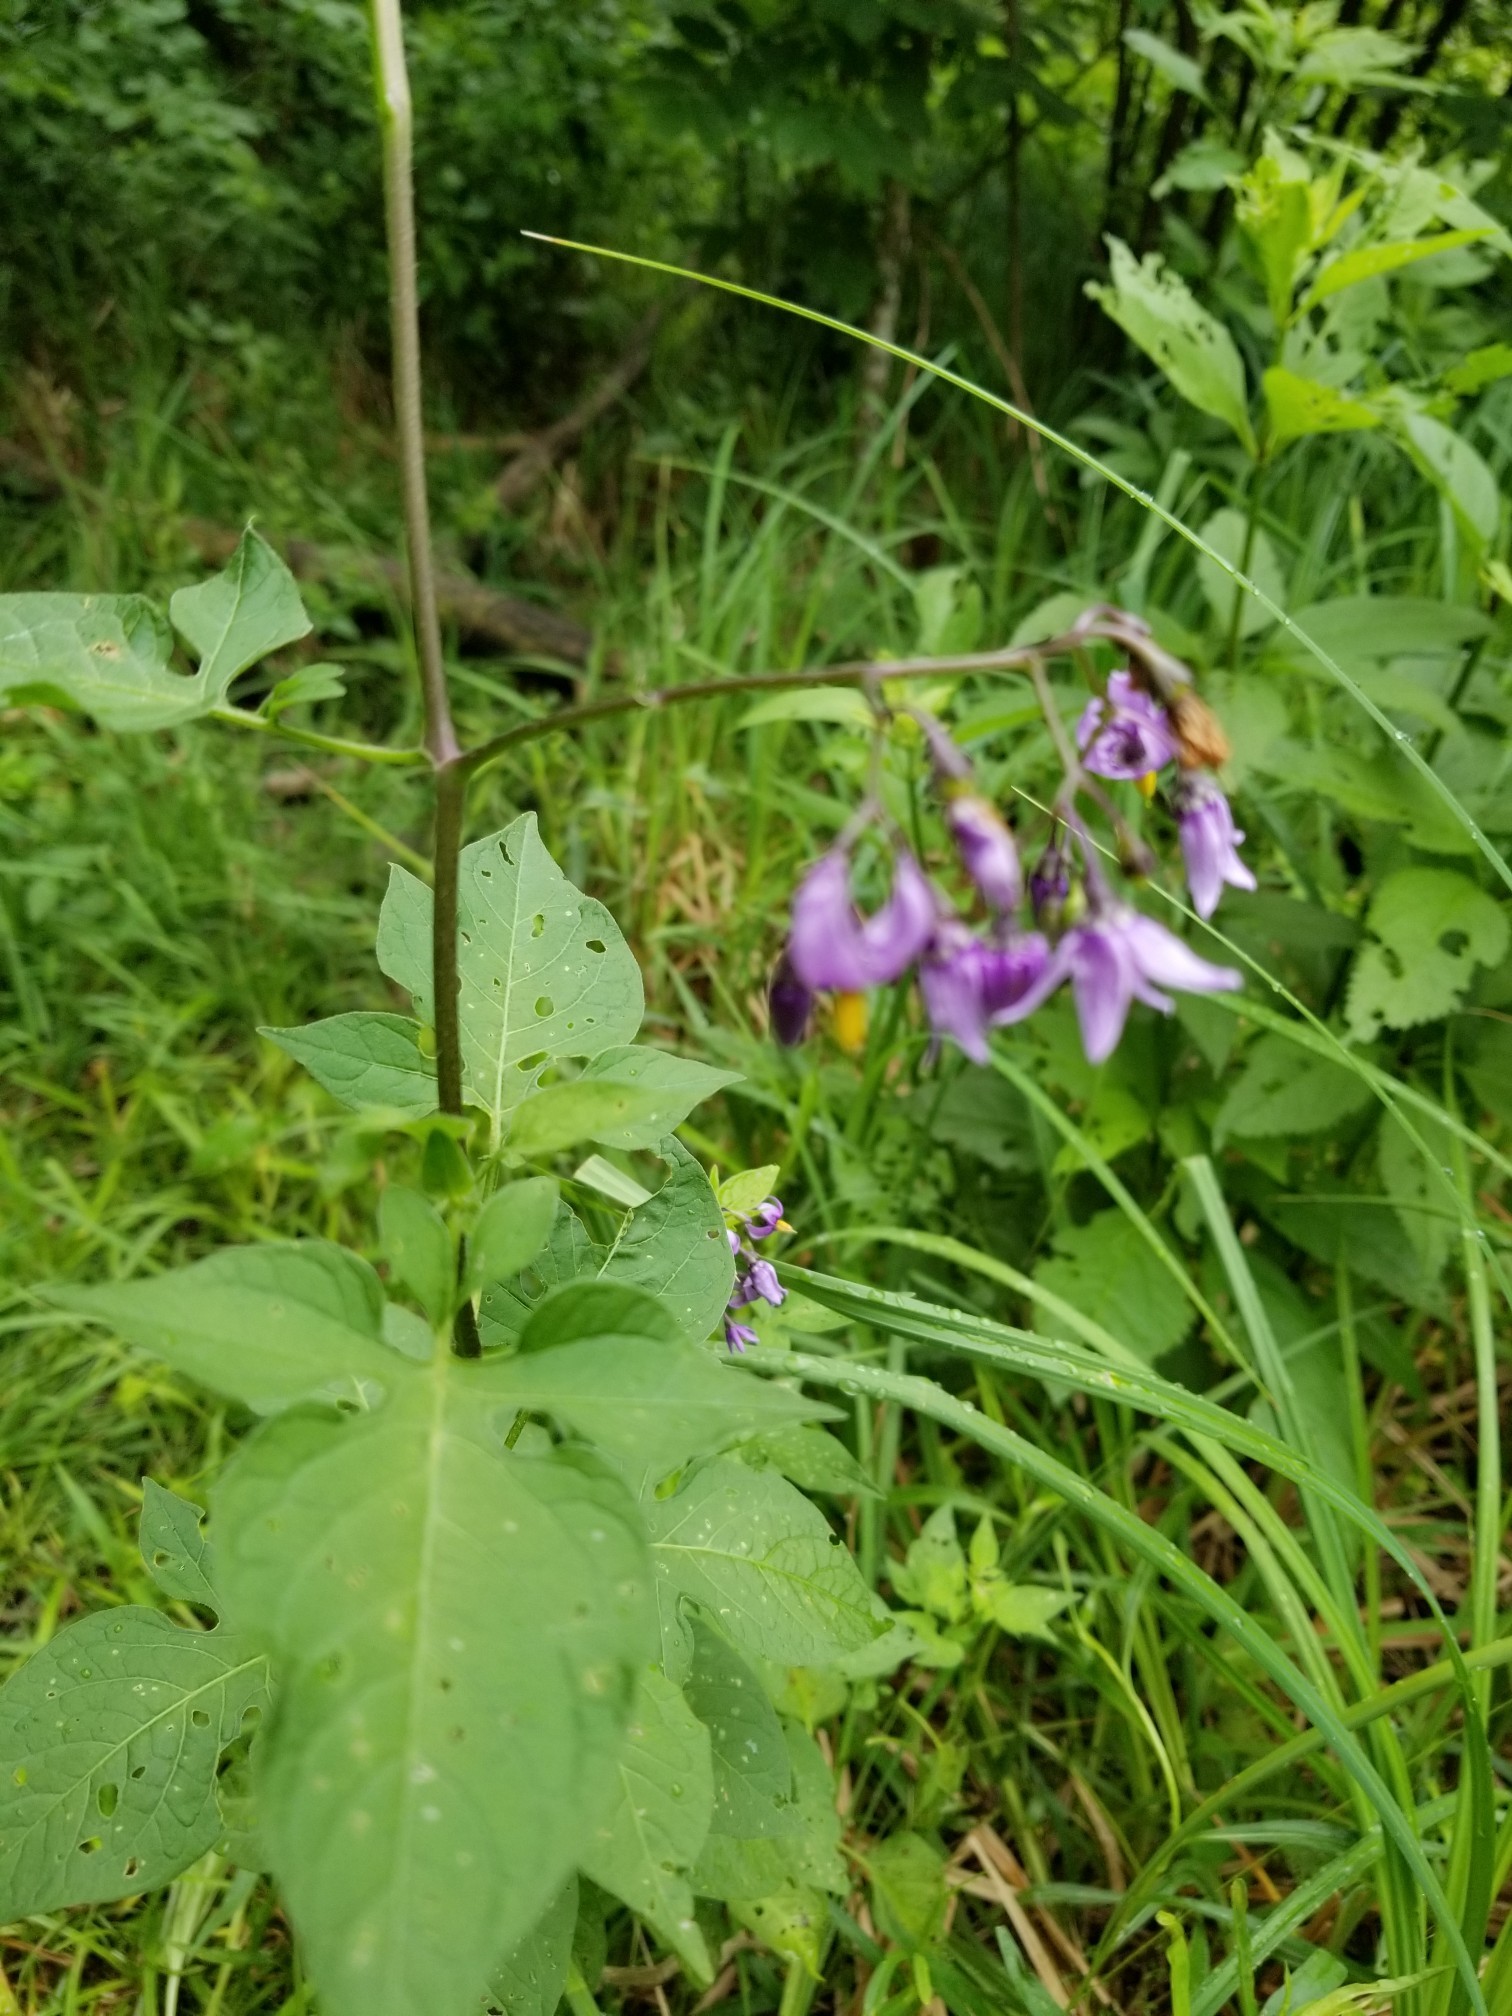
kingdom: Plantae
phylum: Tracheophyta
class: Magnoliopsida
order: Solanales
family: Solanaceae
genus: Solanum
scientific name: Solanum dulcamara
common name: Climbing nightshade
